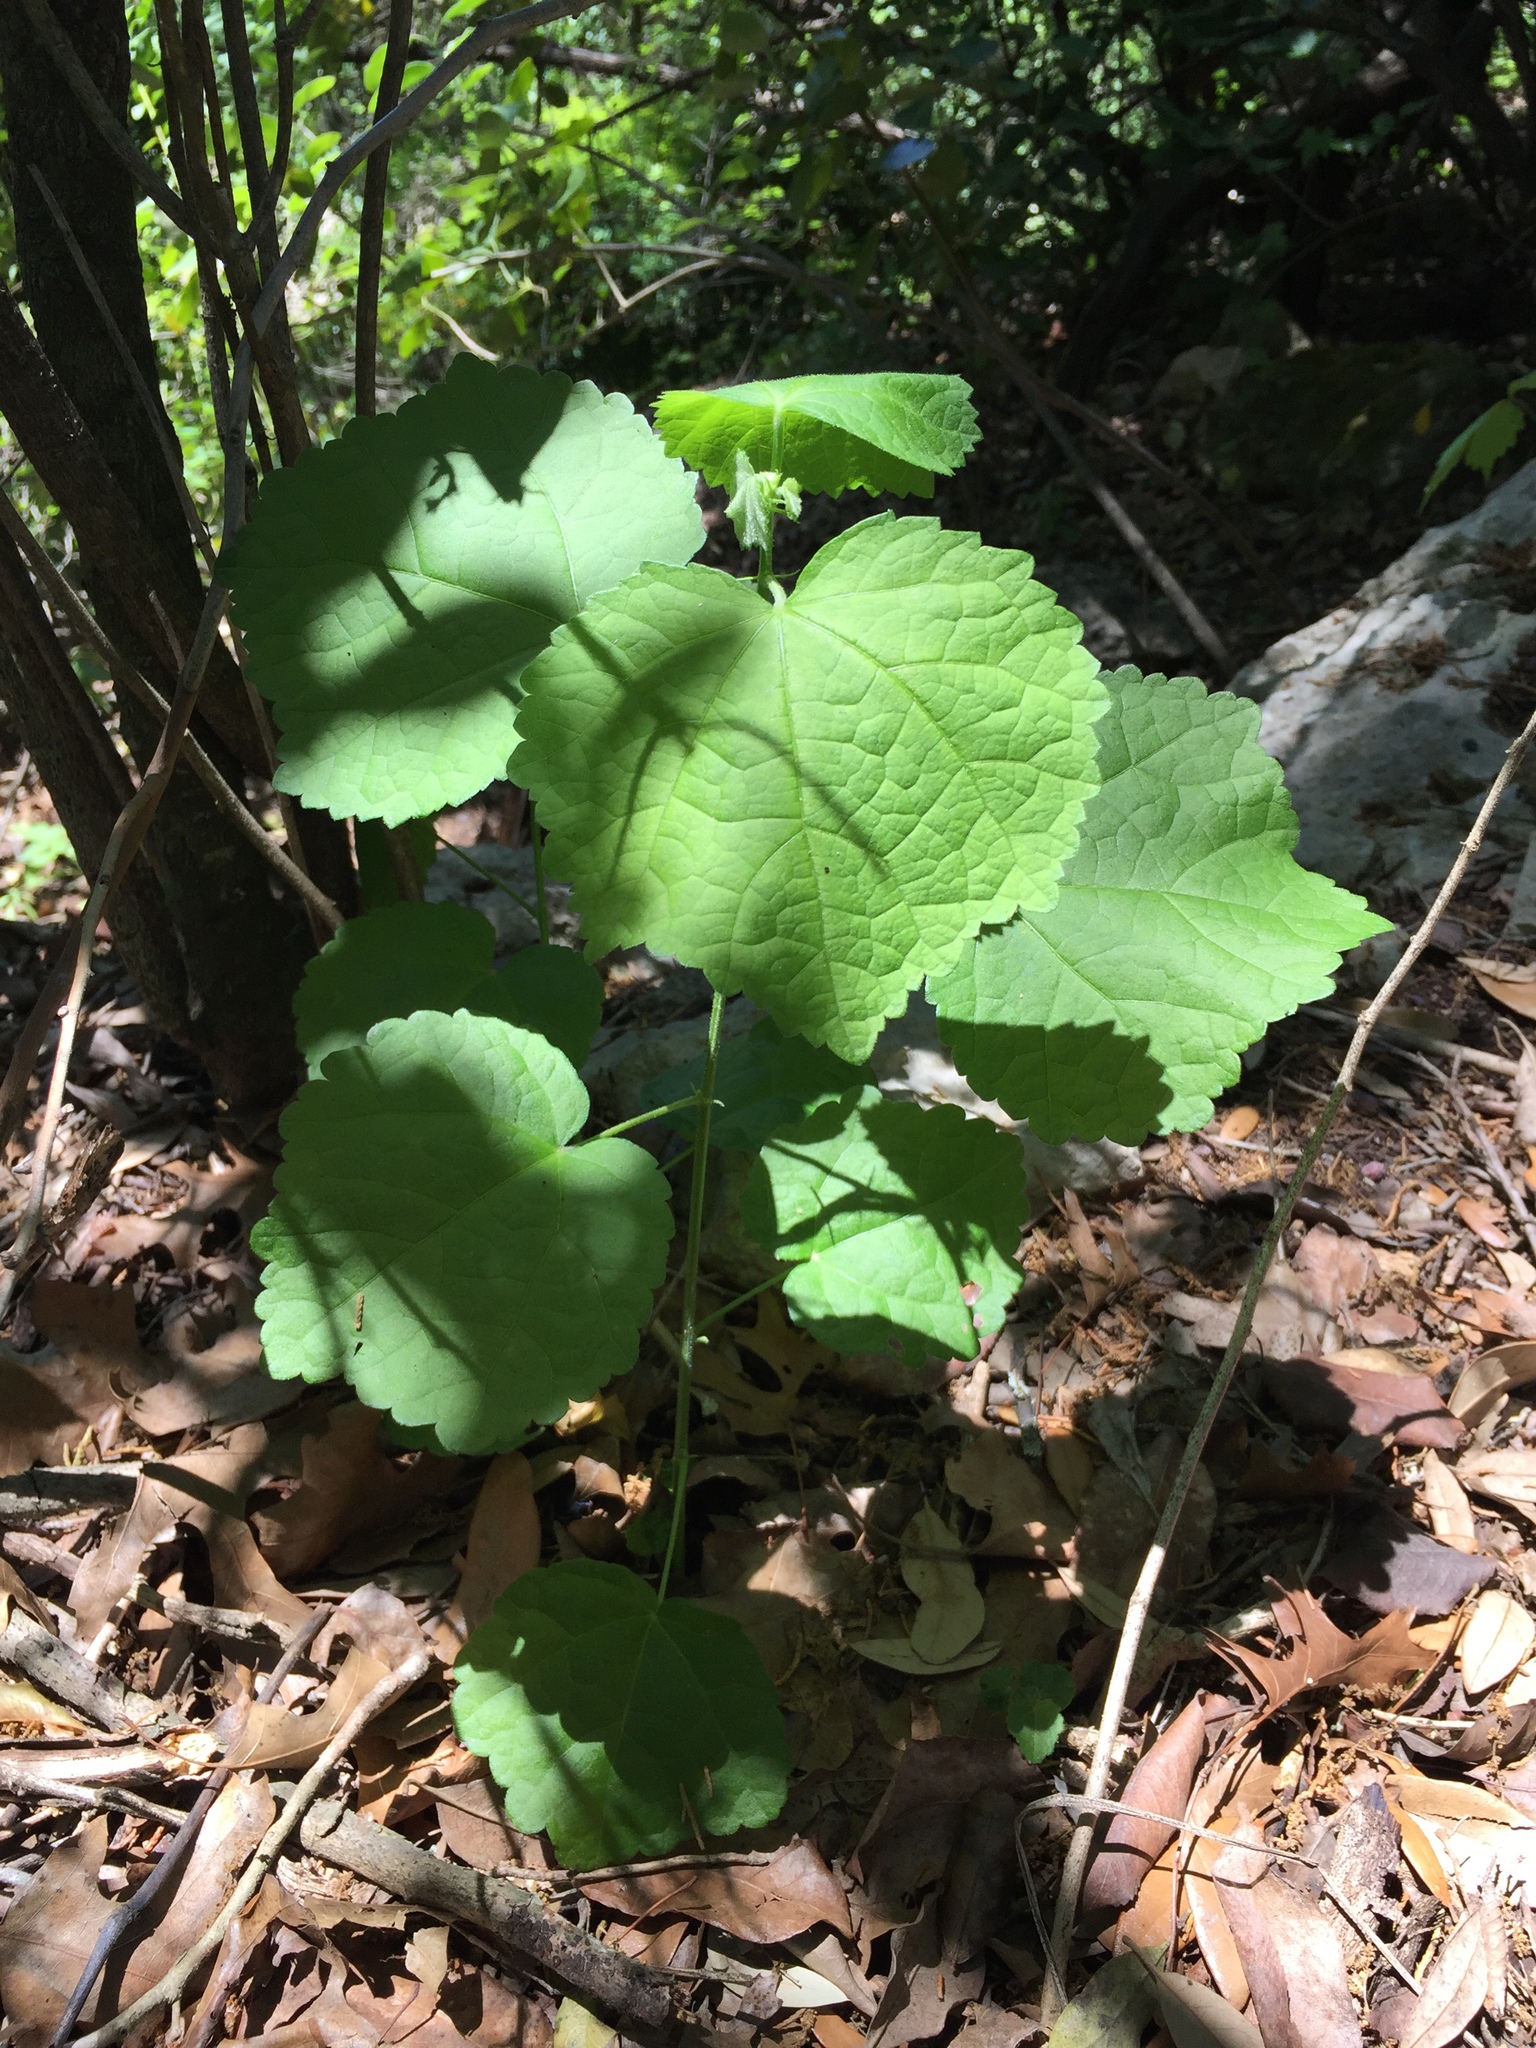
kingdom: Plantae
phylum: Tracheophyta
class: Magnoliopsida
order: Malvales
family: Malvaceae
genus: Malvaviscus
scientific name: Malvaviscus arboreus
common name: Wax mallow
